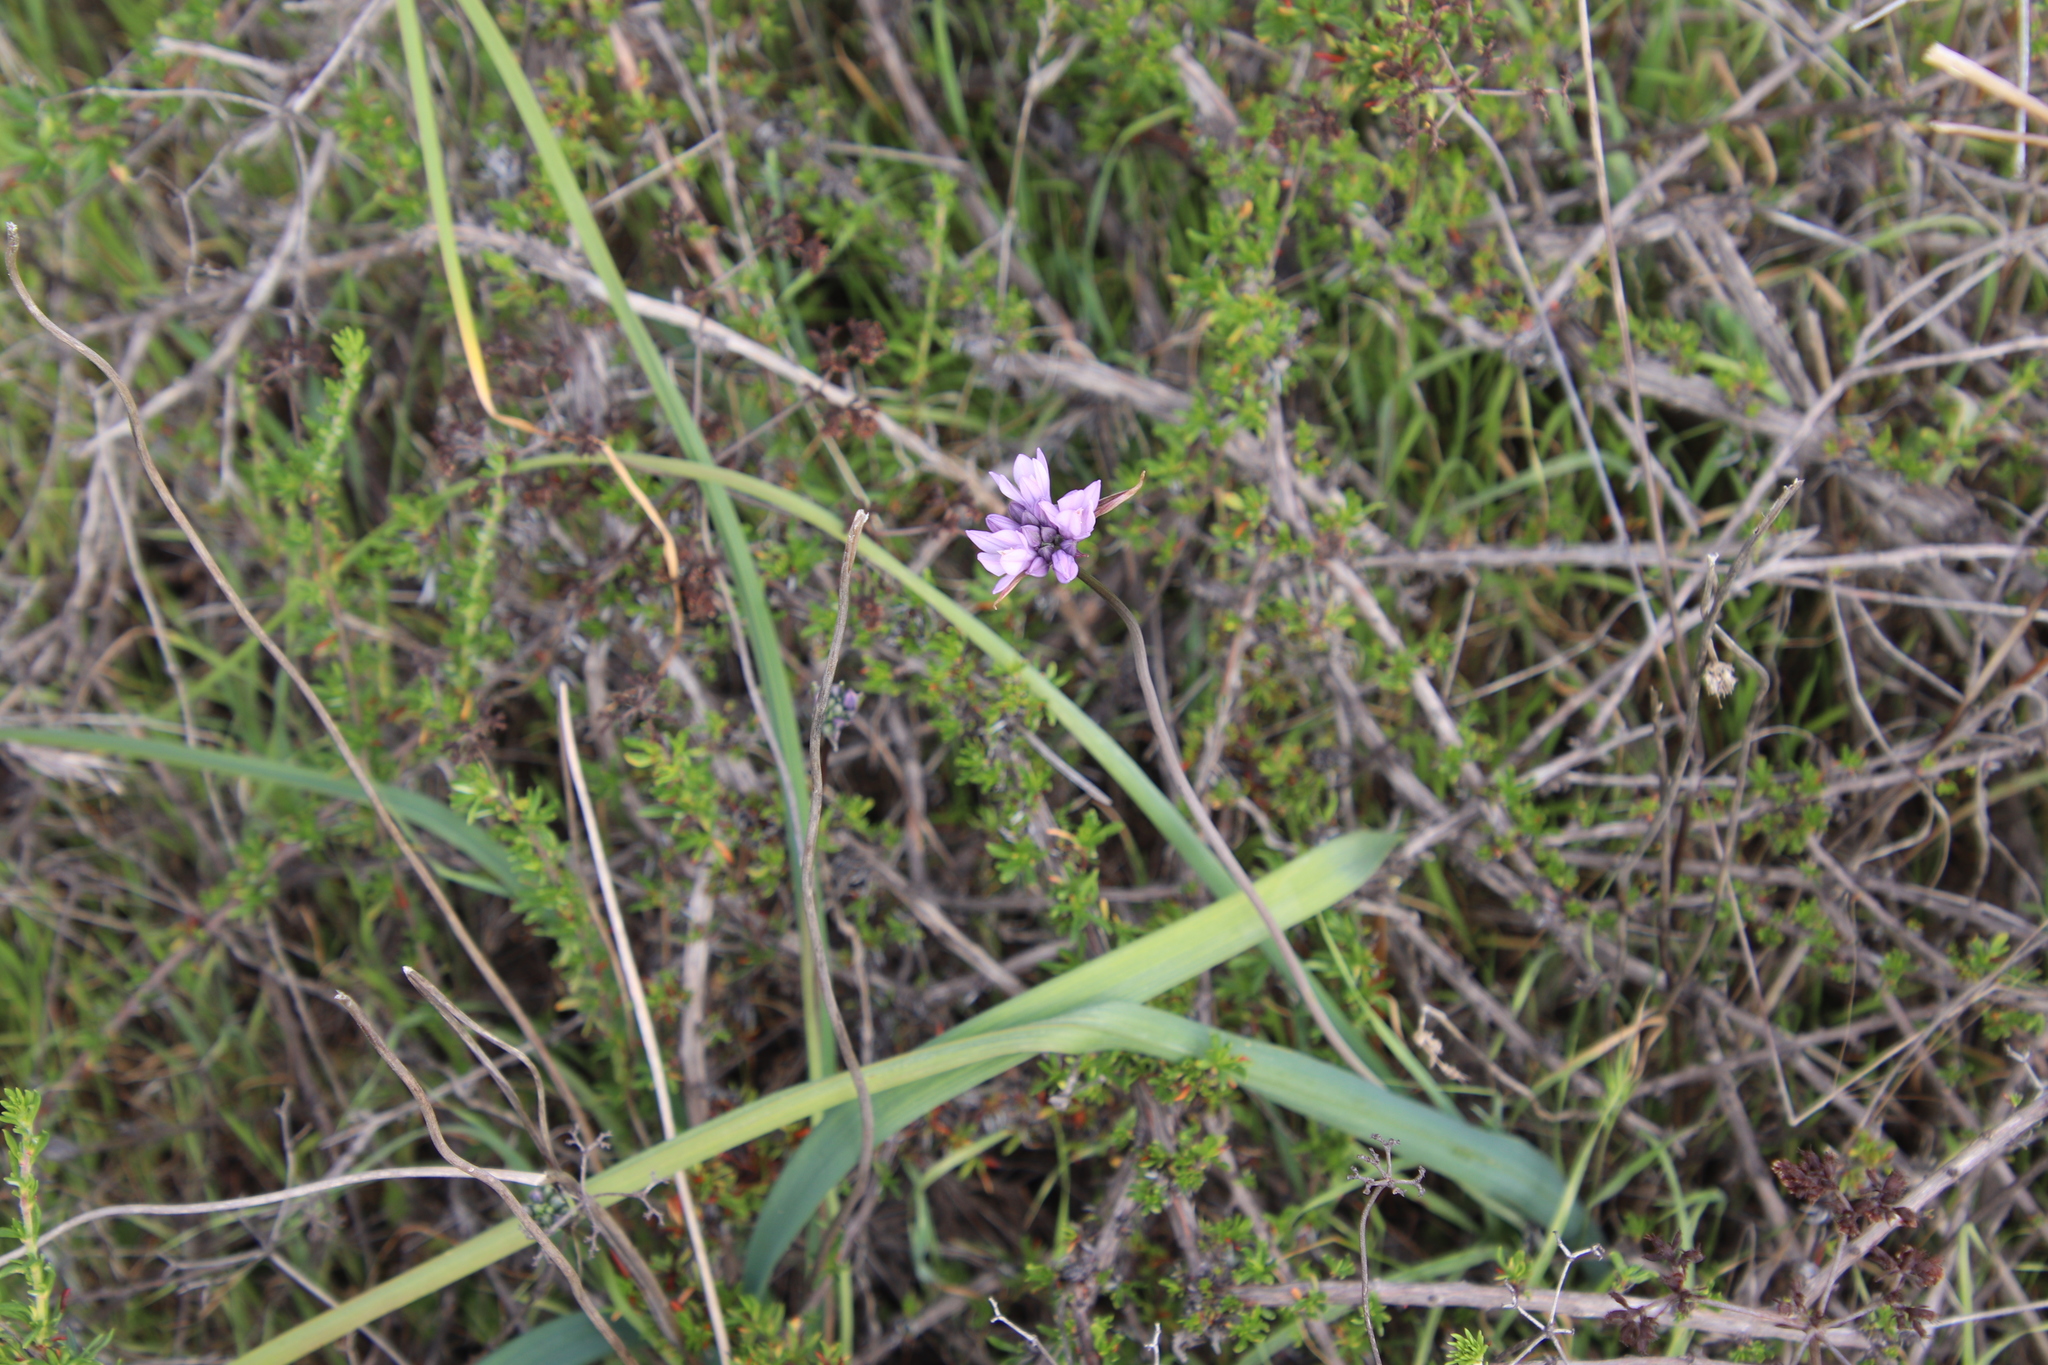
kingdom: Plantae
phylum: Tracheophyta
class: Liliopsida
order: Asparagales
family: Asparagaceae
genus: Dipterostemon
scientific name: Dipterostemon capitatus
